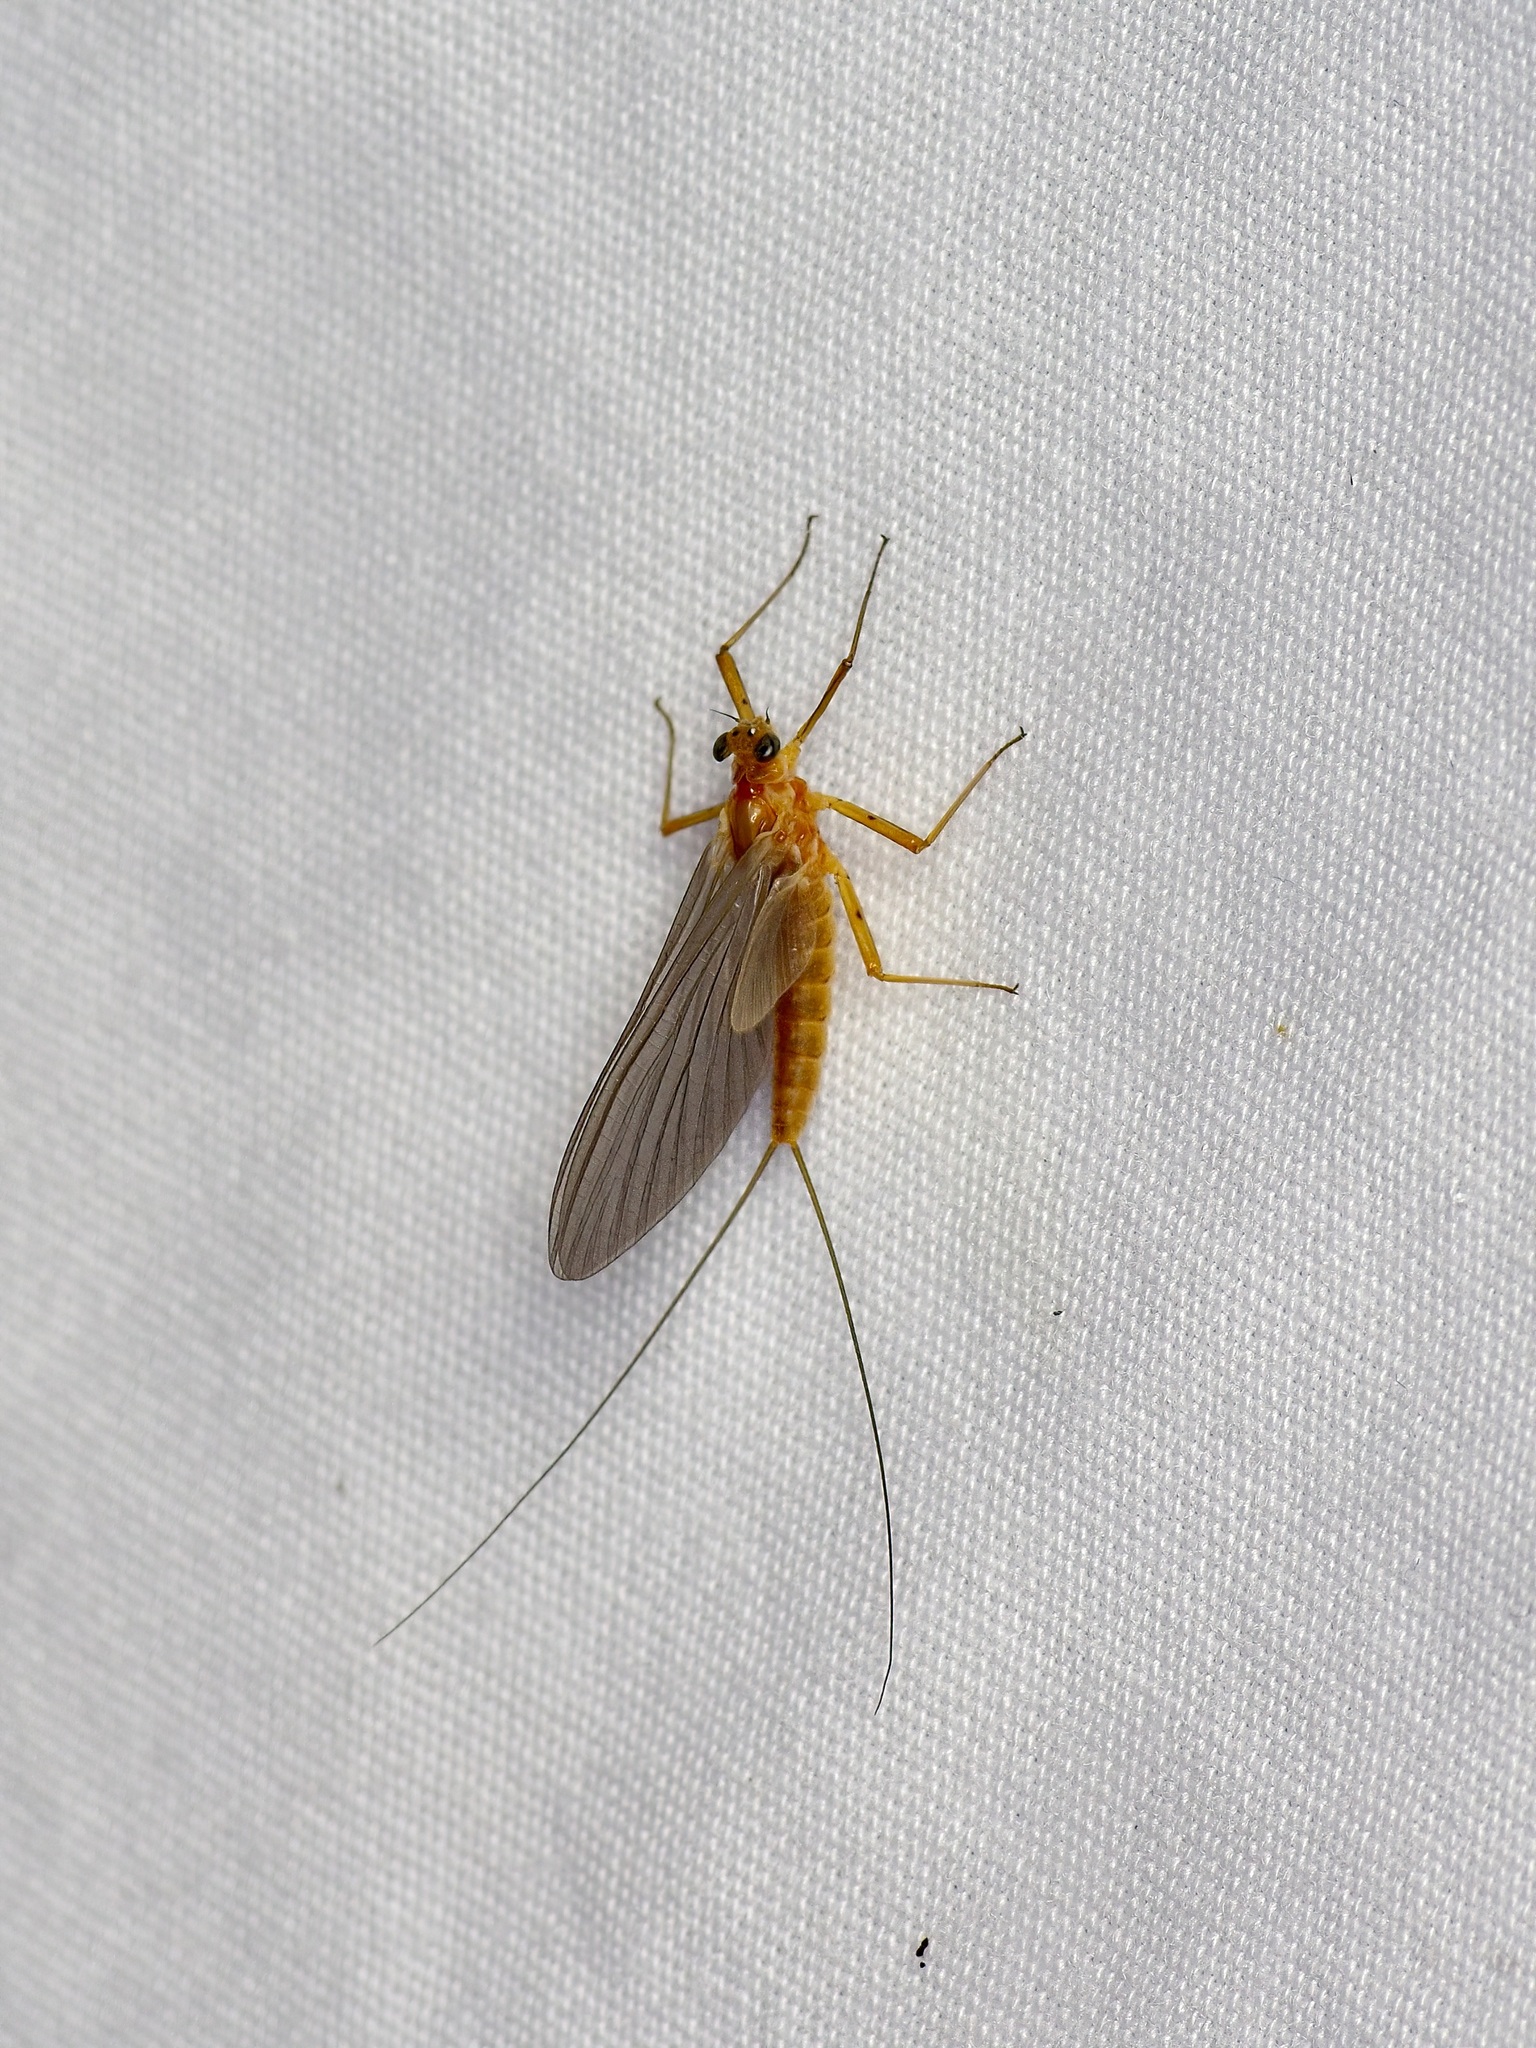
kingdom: Animalia
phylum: Arthropoda
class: Insecta
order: Ephemeroptera
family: Heptageniidae
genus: Epeorus
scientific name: Epeorus longimanus
